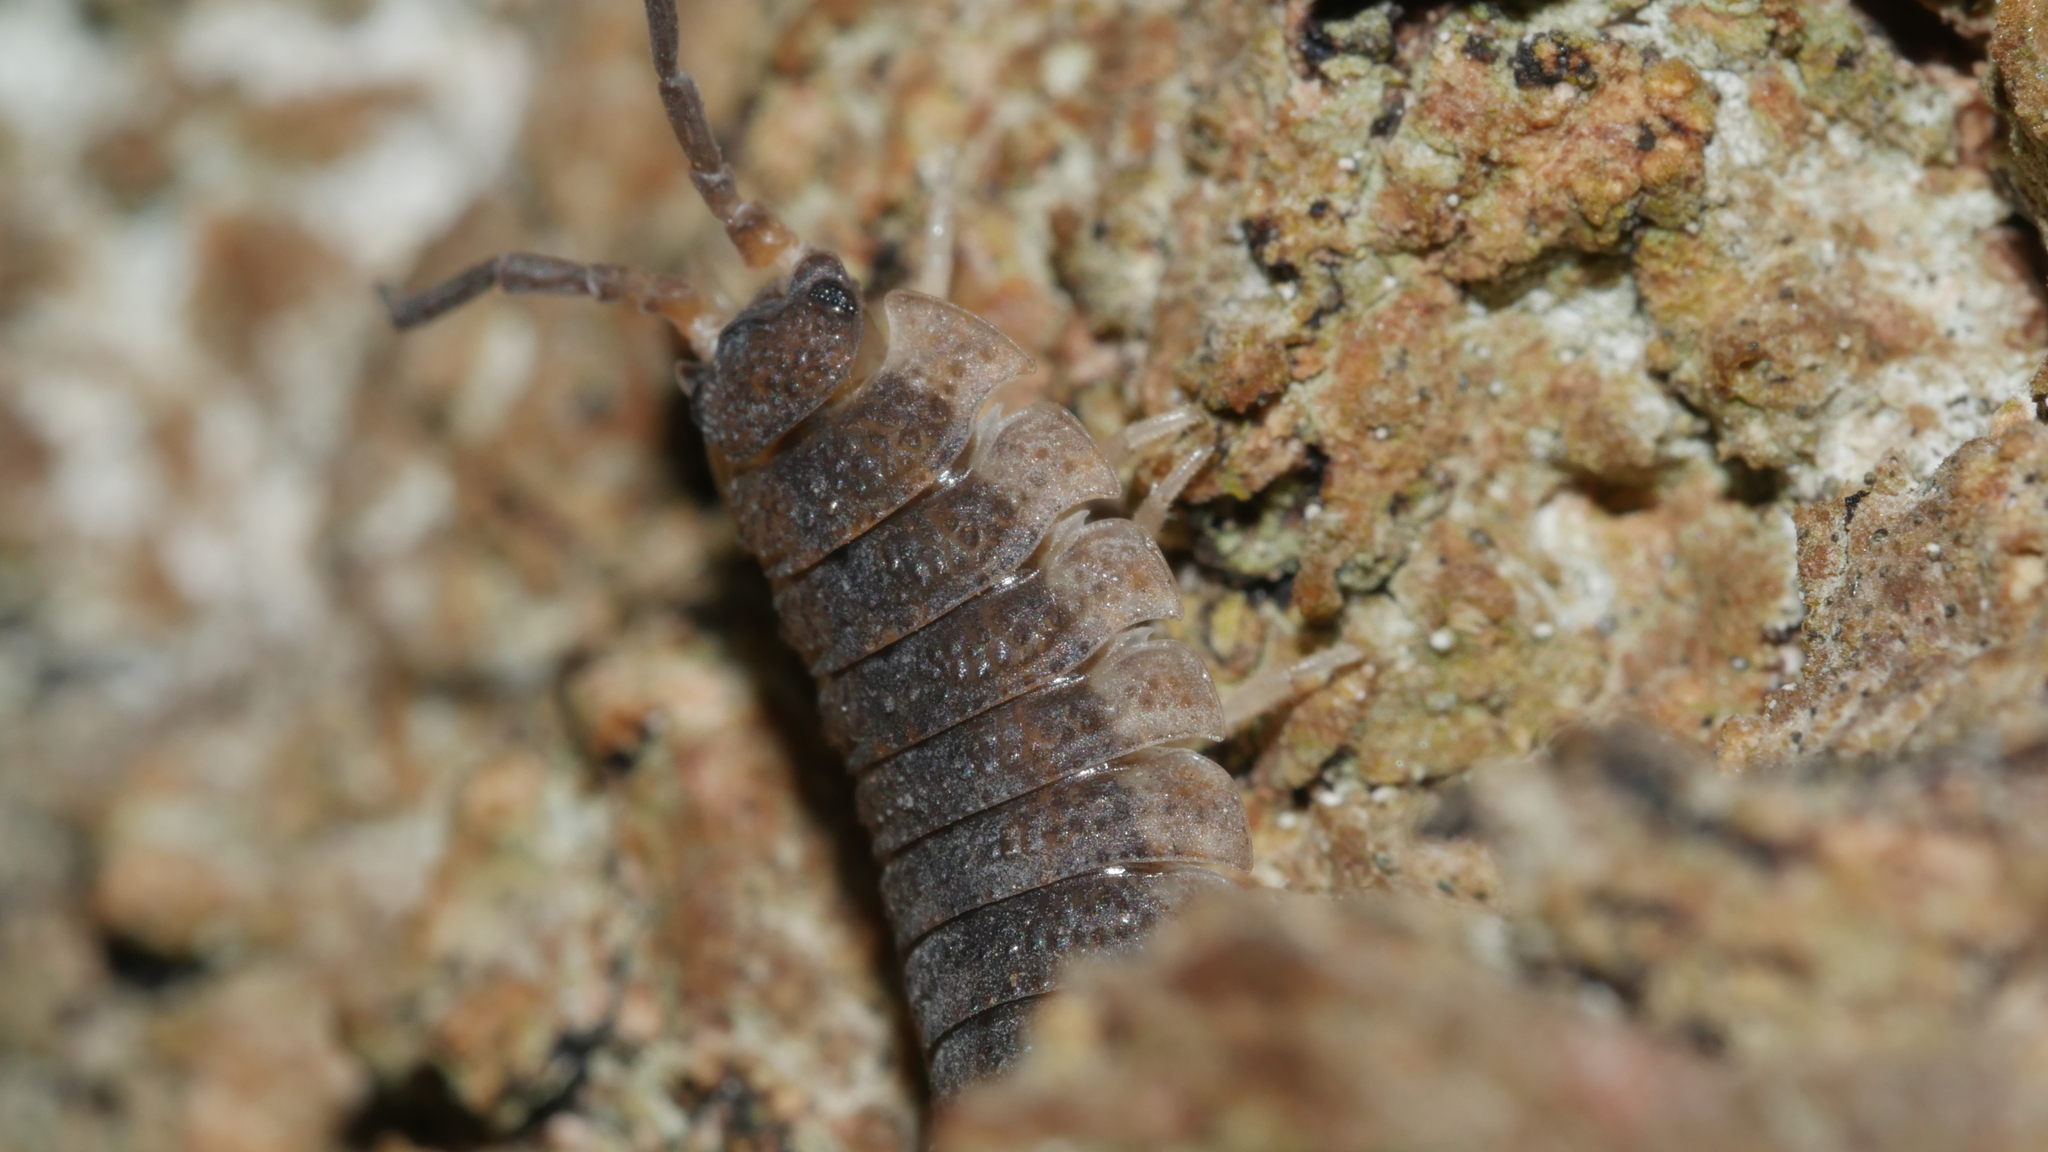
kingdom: Animalia
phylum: Arthropoda
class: Malacostraca
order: Isopoda
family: Porcellionidae
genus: Porcellio
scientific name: Porcellio scaber
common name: Common rough woodlouse
